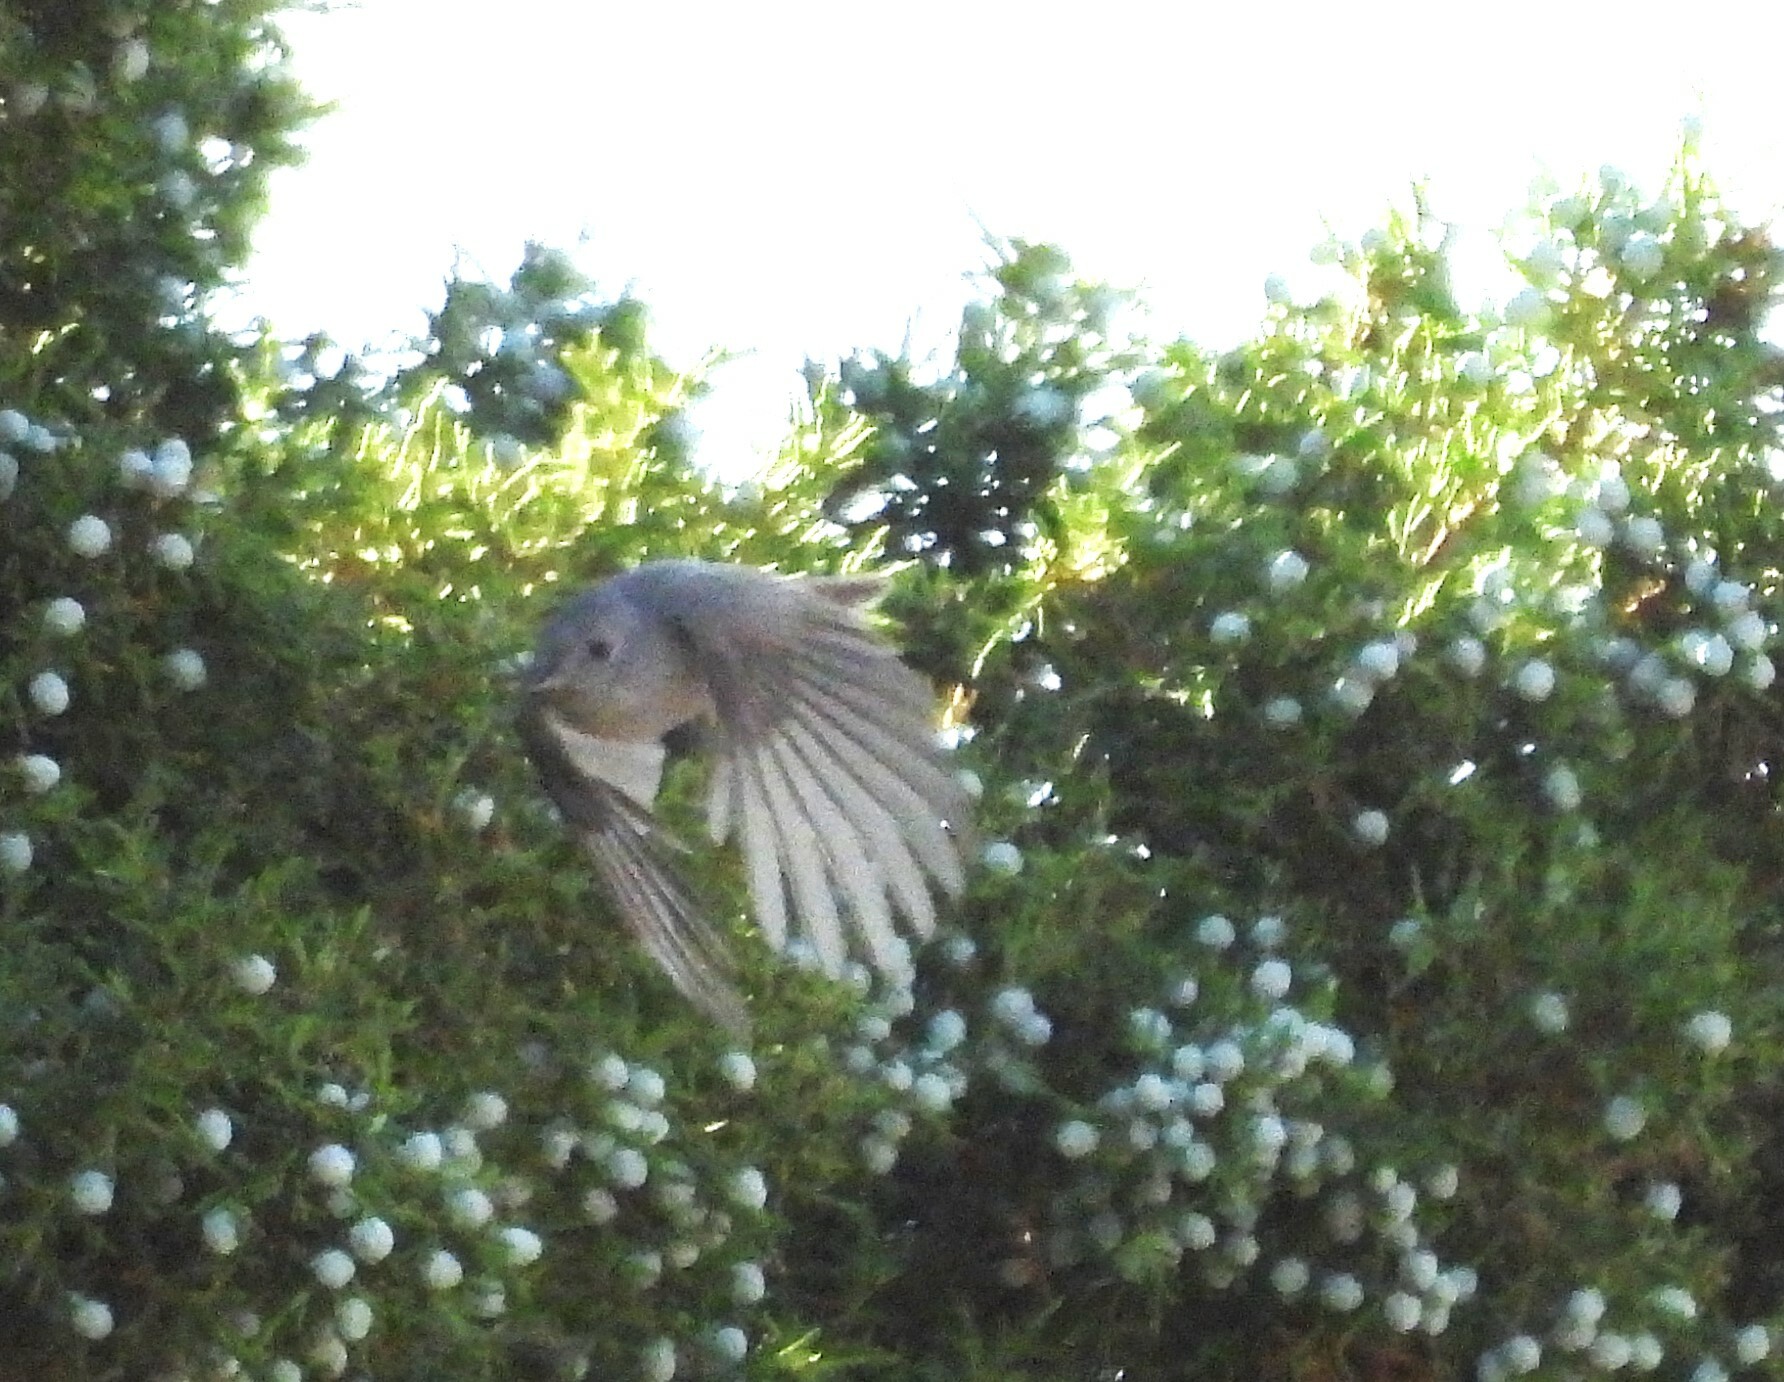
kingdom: Animalia
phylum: Chordata
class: Aves
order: Passeriformes
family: Paridae
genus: Baeolophus
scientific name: Baeolophus ridgwayi
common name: Juniper titmouse
